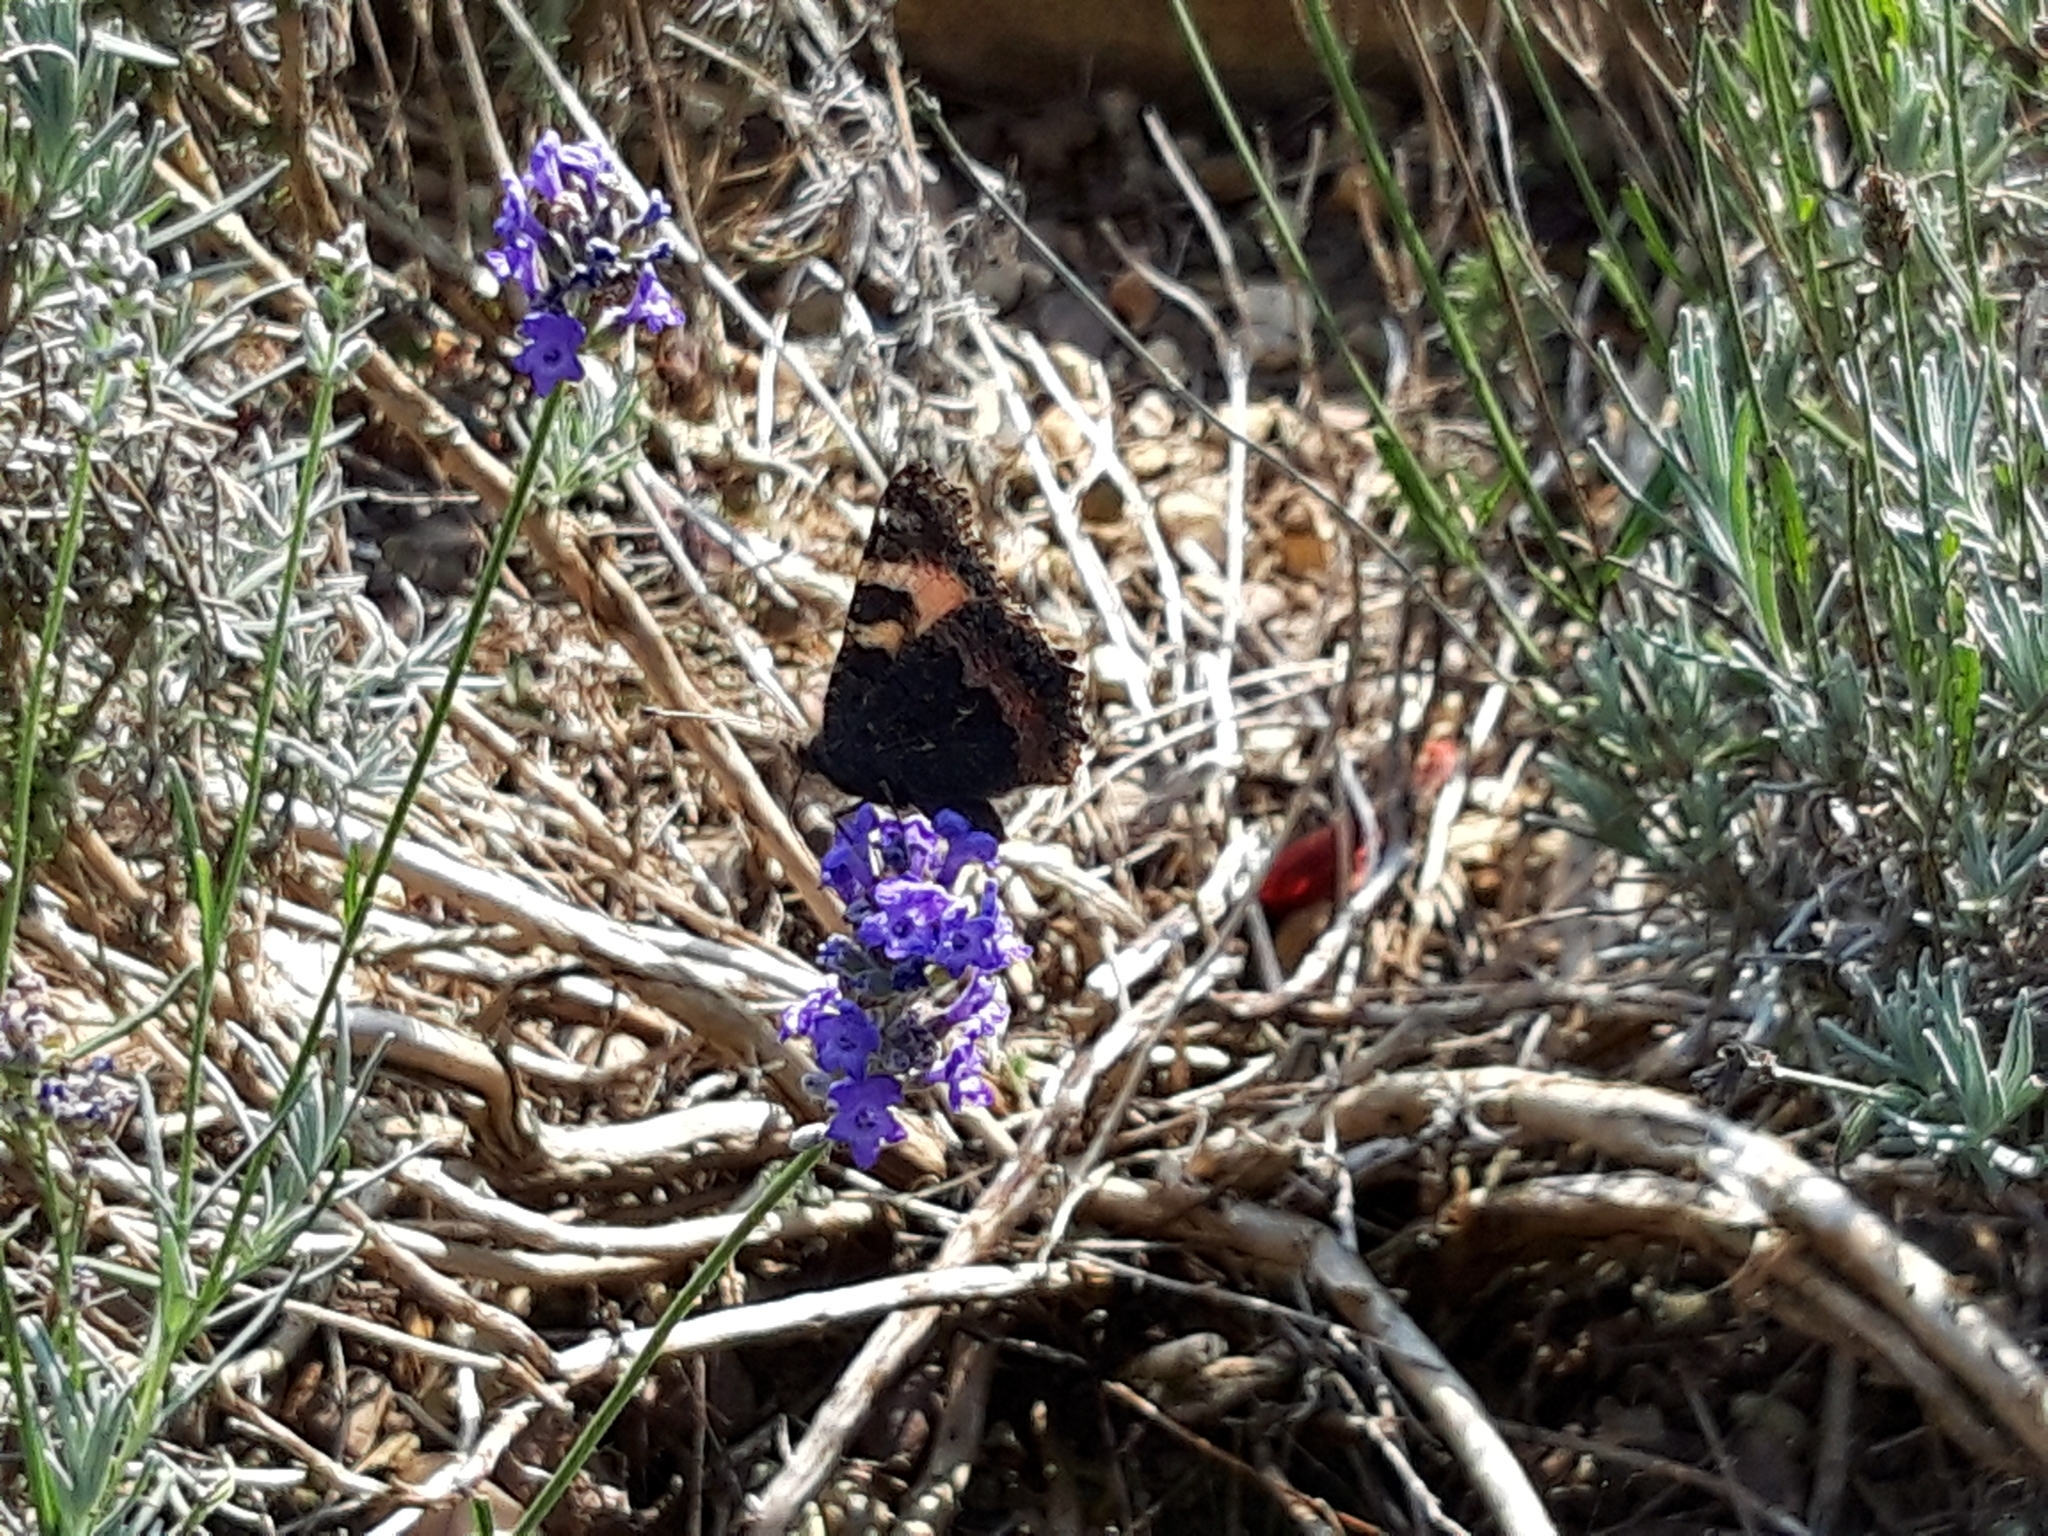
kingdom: Animalia
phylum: Arthropoda
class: Insecta
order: Lepidoptera
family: Nymphalidae
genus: Aglais
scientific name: Aglais urticae
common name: Small tortoiseshell
